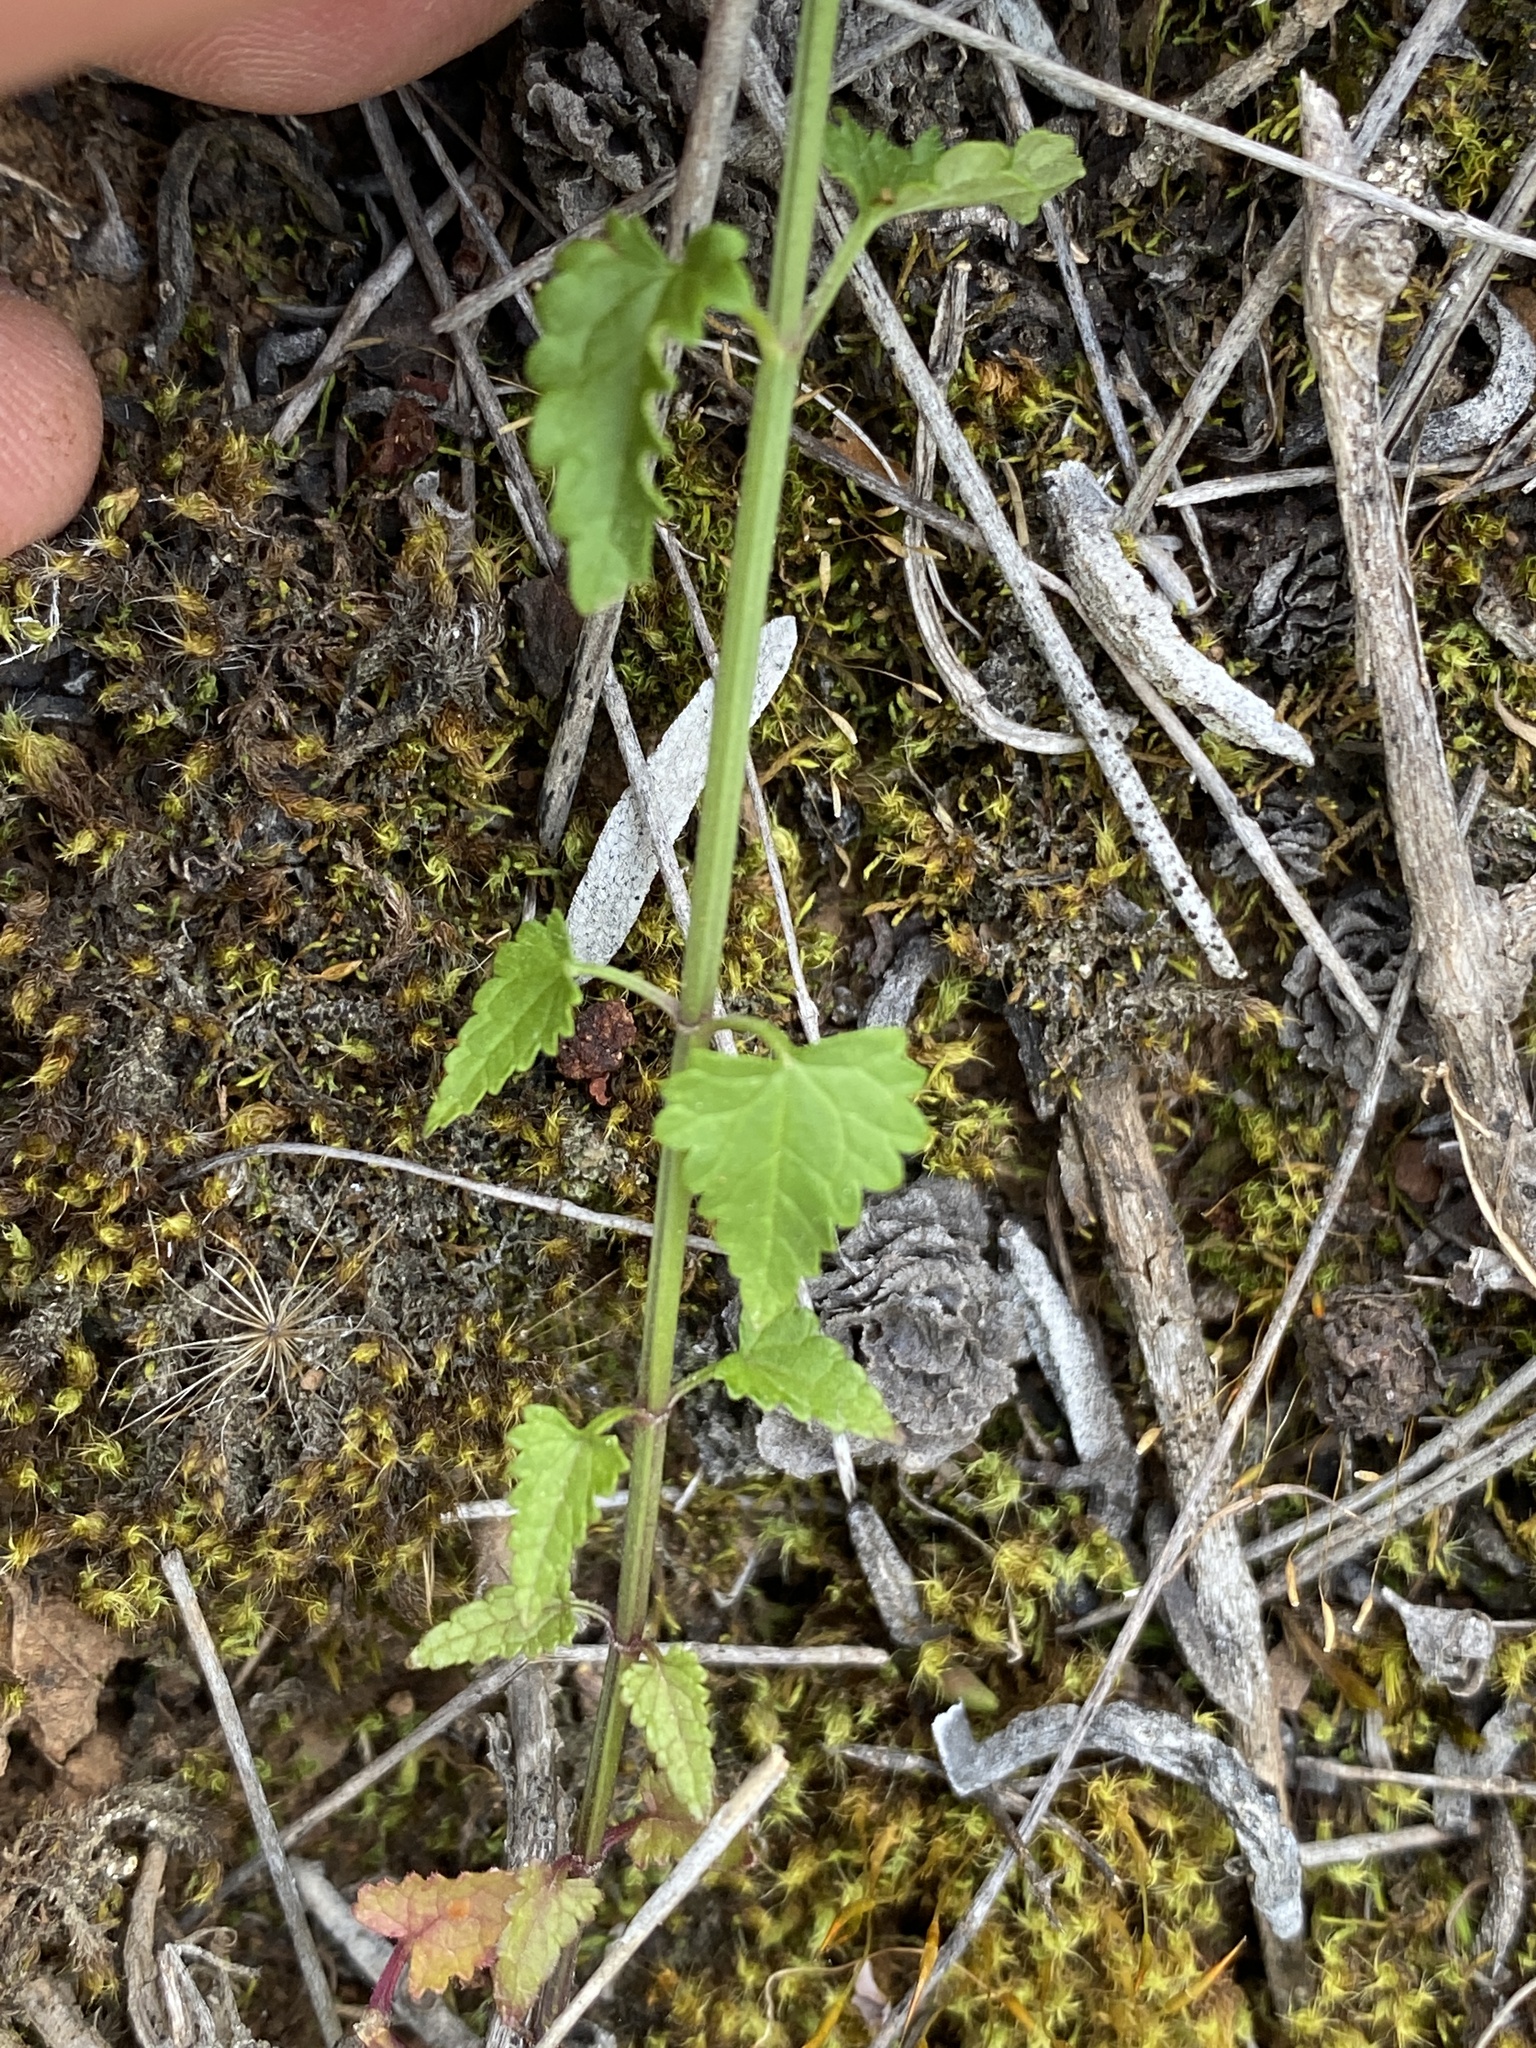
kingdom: Plantae
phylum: Tracheophyta
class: Magnoliopsida
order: Lamiales
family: Lamiaceae
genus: Stachys
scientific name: Stachys aethiopica
